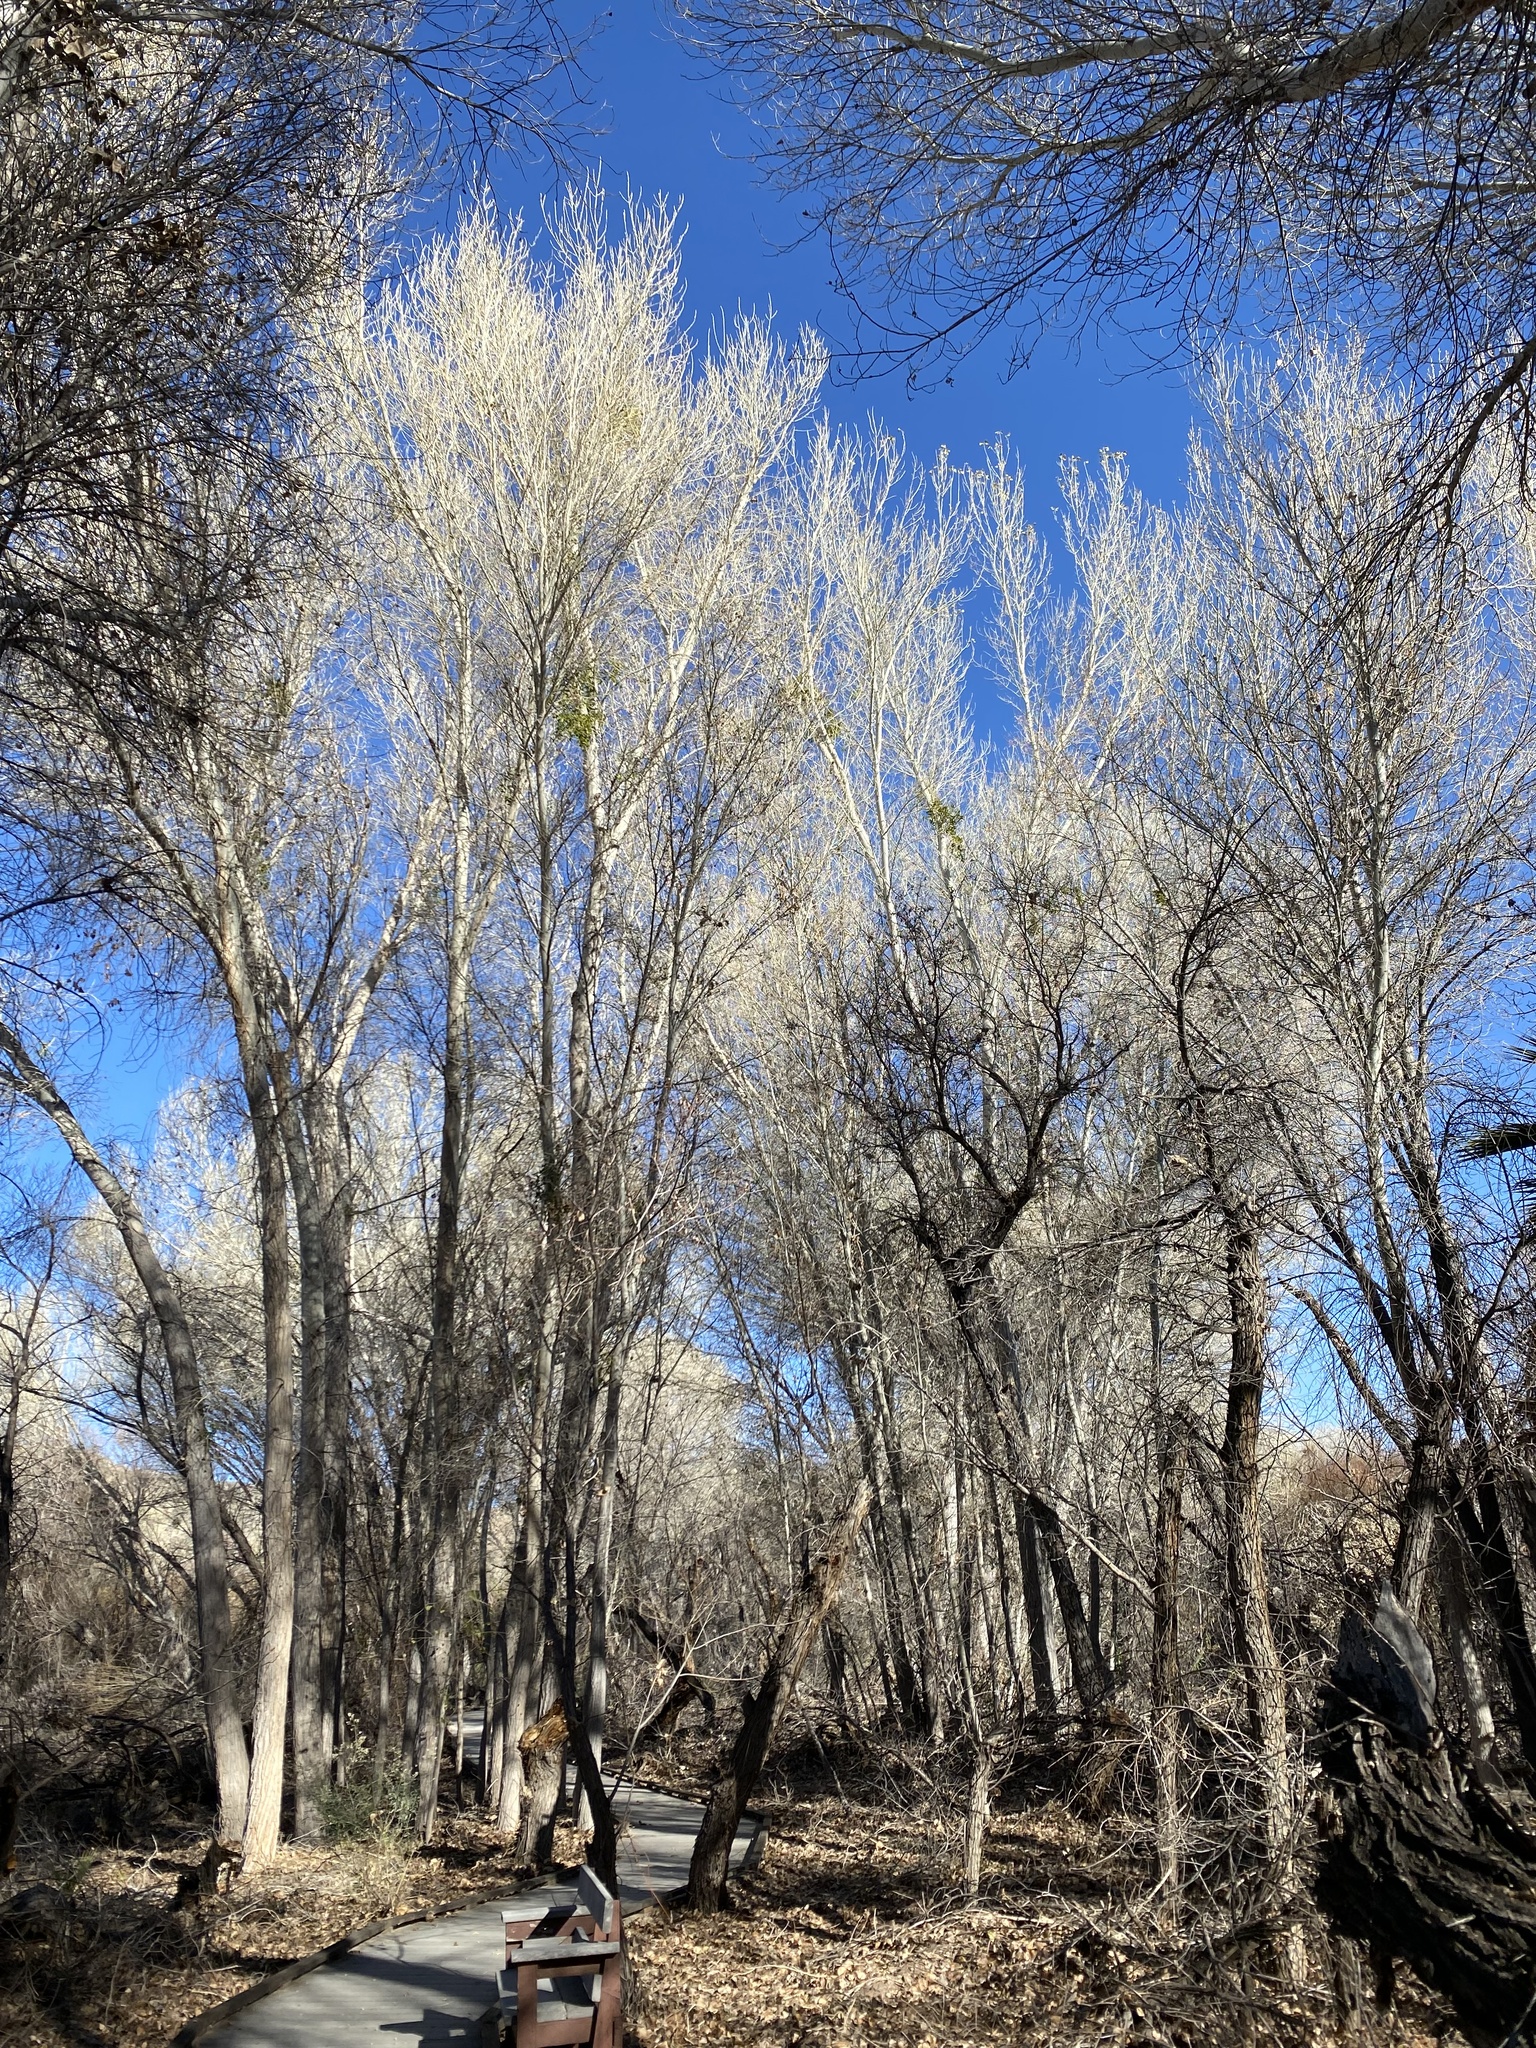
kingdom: Plantae
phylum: Tracheophyta
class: Magnoliopsida
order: Malpighiales
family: Salicaceae
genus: Populus
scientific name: Populus fremontii
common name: Fremont's cottonwood
